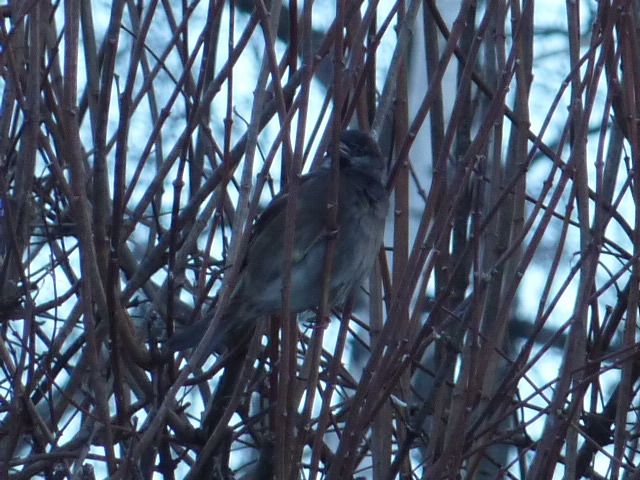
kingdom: Animalia
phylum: Chordata
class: Aves
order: Passeriformes
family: Passeridae
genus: Passer
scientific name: Passer domesticus
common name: House sparrow
